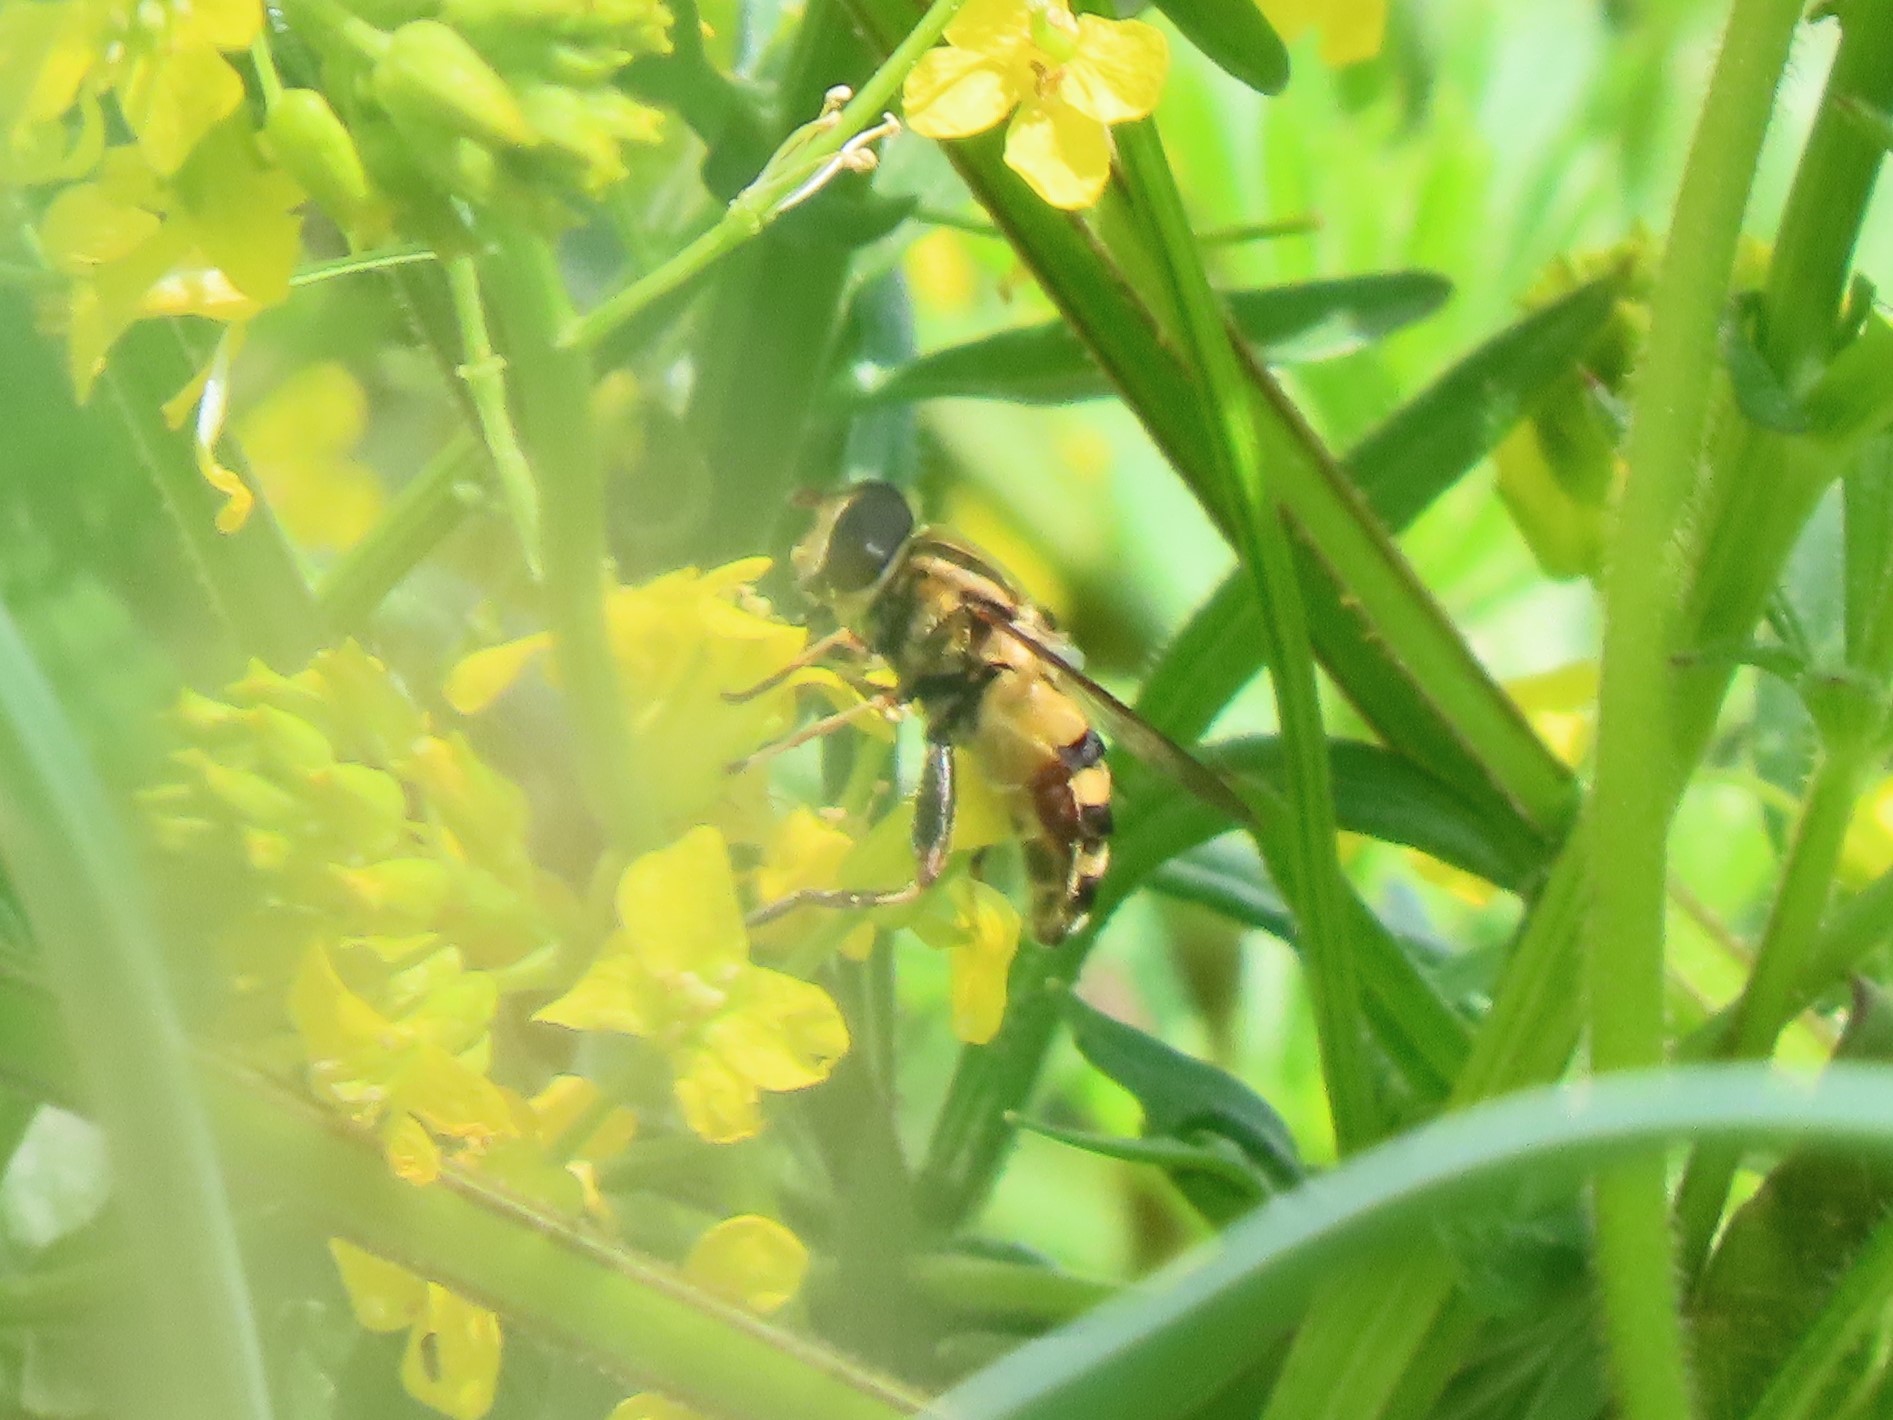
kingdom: Animalia
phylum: Arthropoda
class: Insecta
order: Diptera
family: Syrphidae
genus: Helophilus
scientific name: Helophilus fasciatus
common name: Narrow-headed marsh fly
